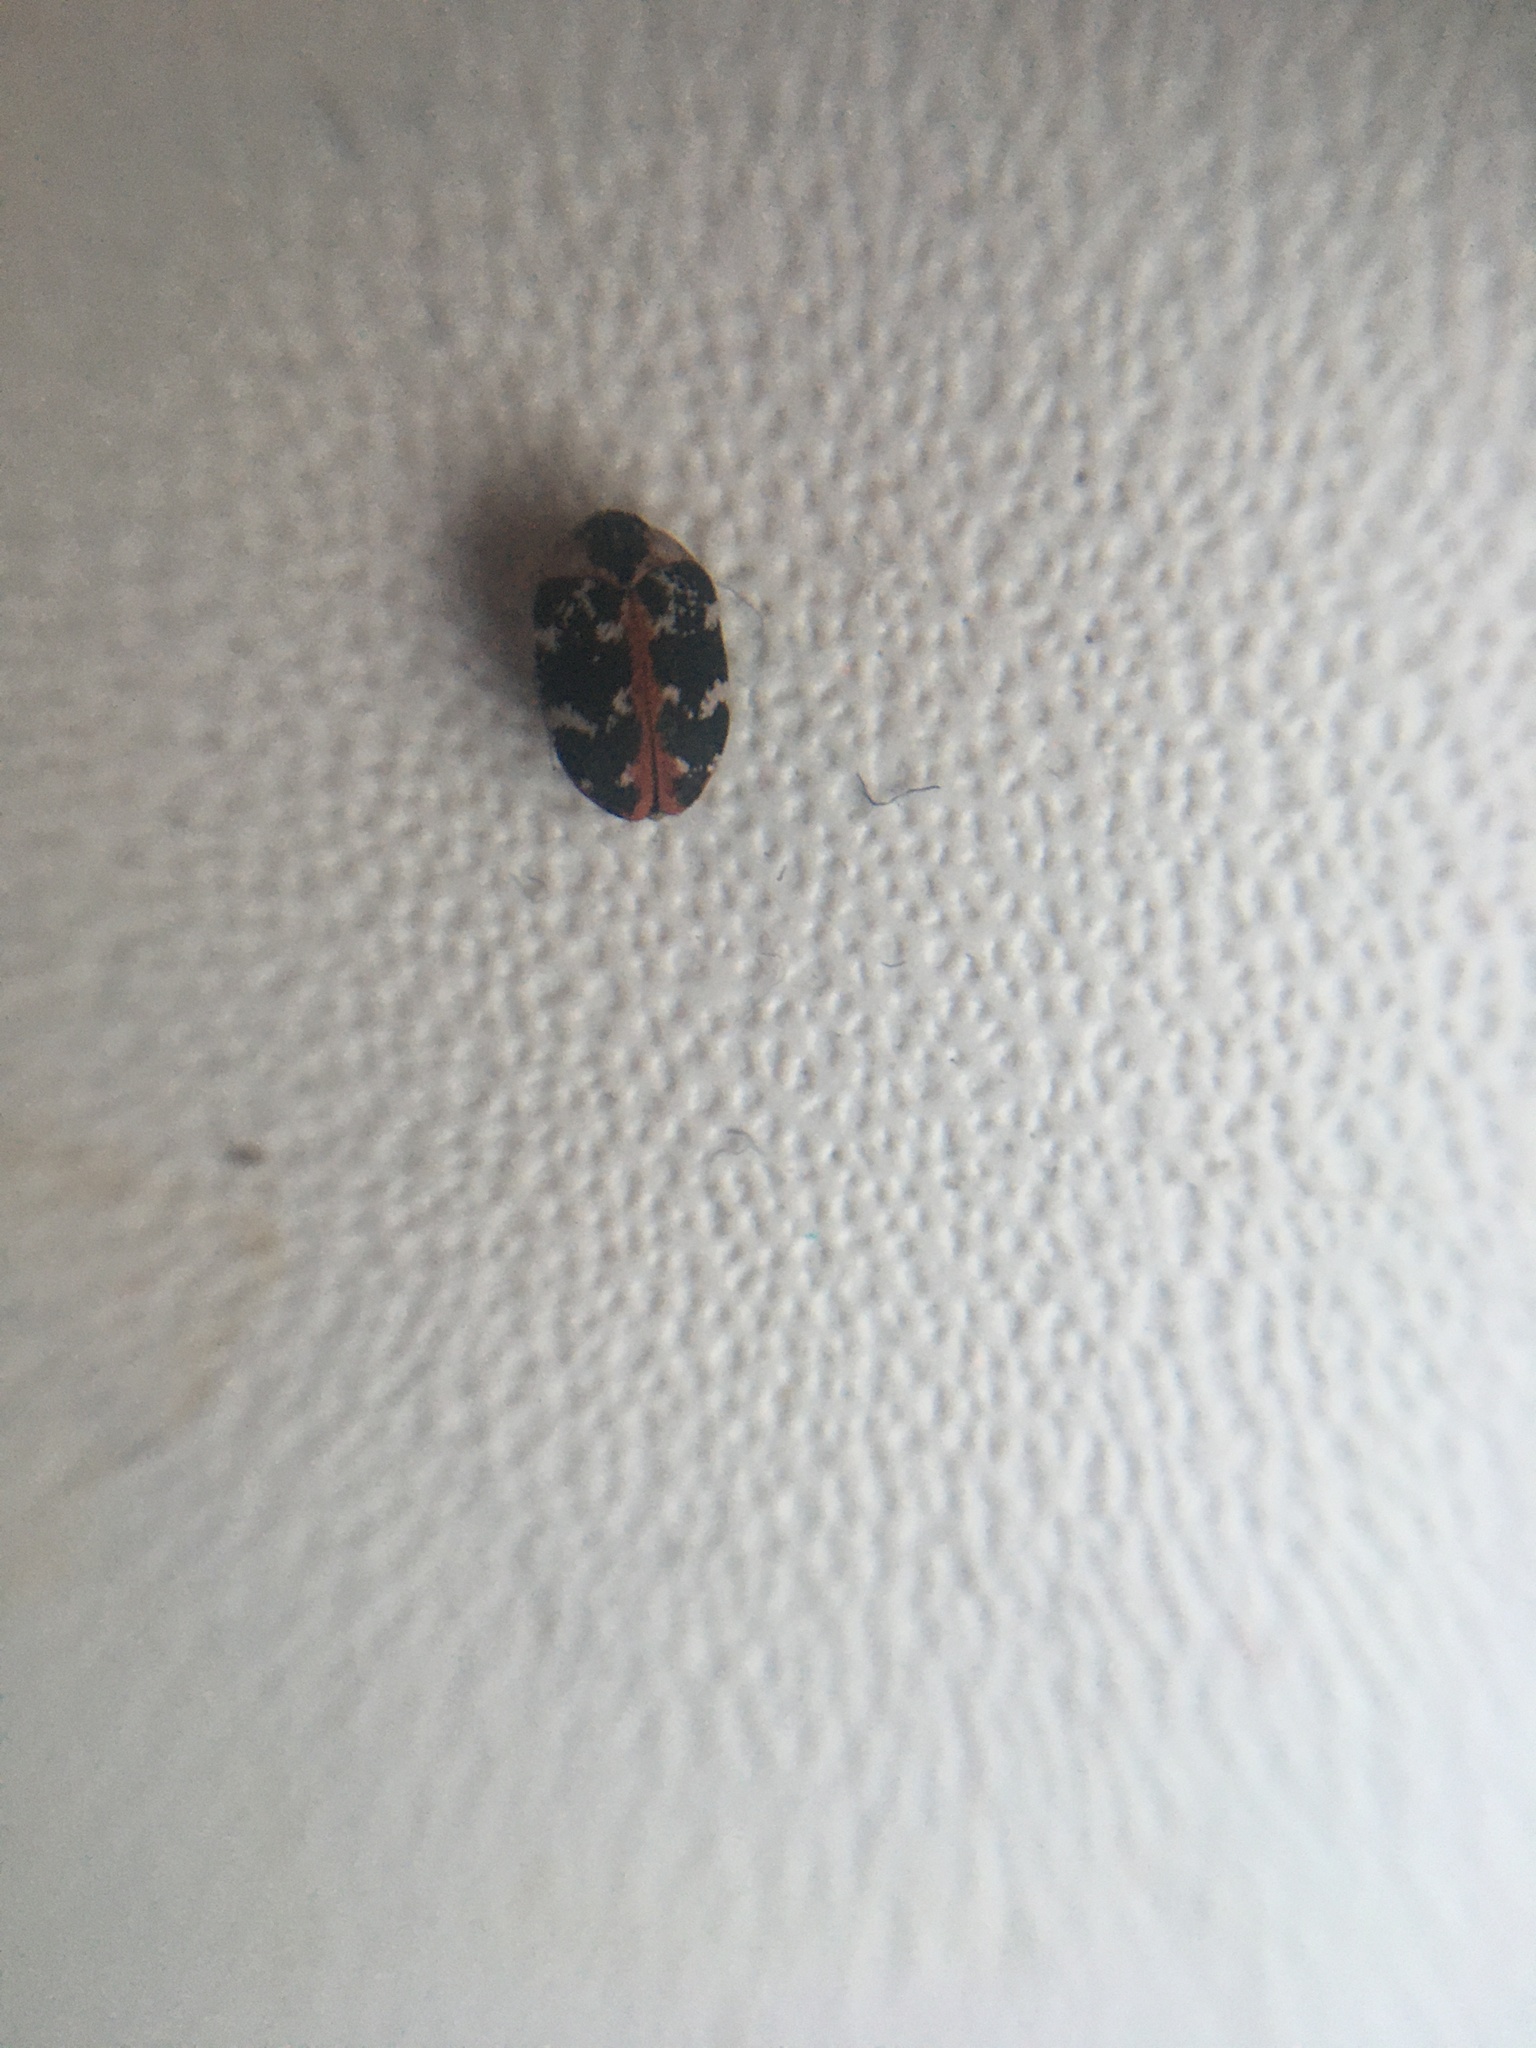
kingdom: Animalia
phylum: Arthropoda
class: Insecta
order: Coleoptera
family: Dermestidae
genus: Anthrenus
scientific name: Anthrenus scrophulariae
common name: Buffalo carpet beetle
